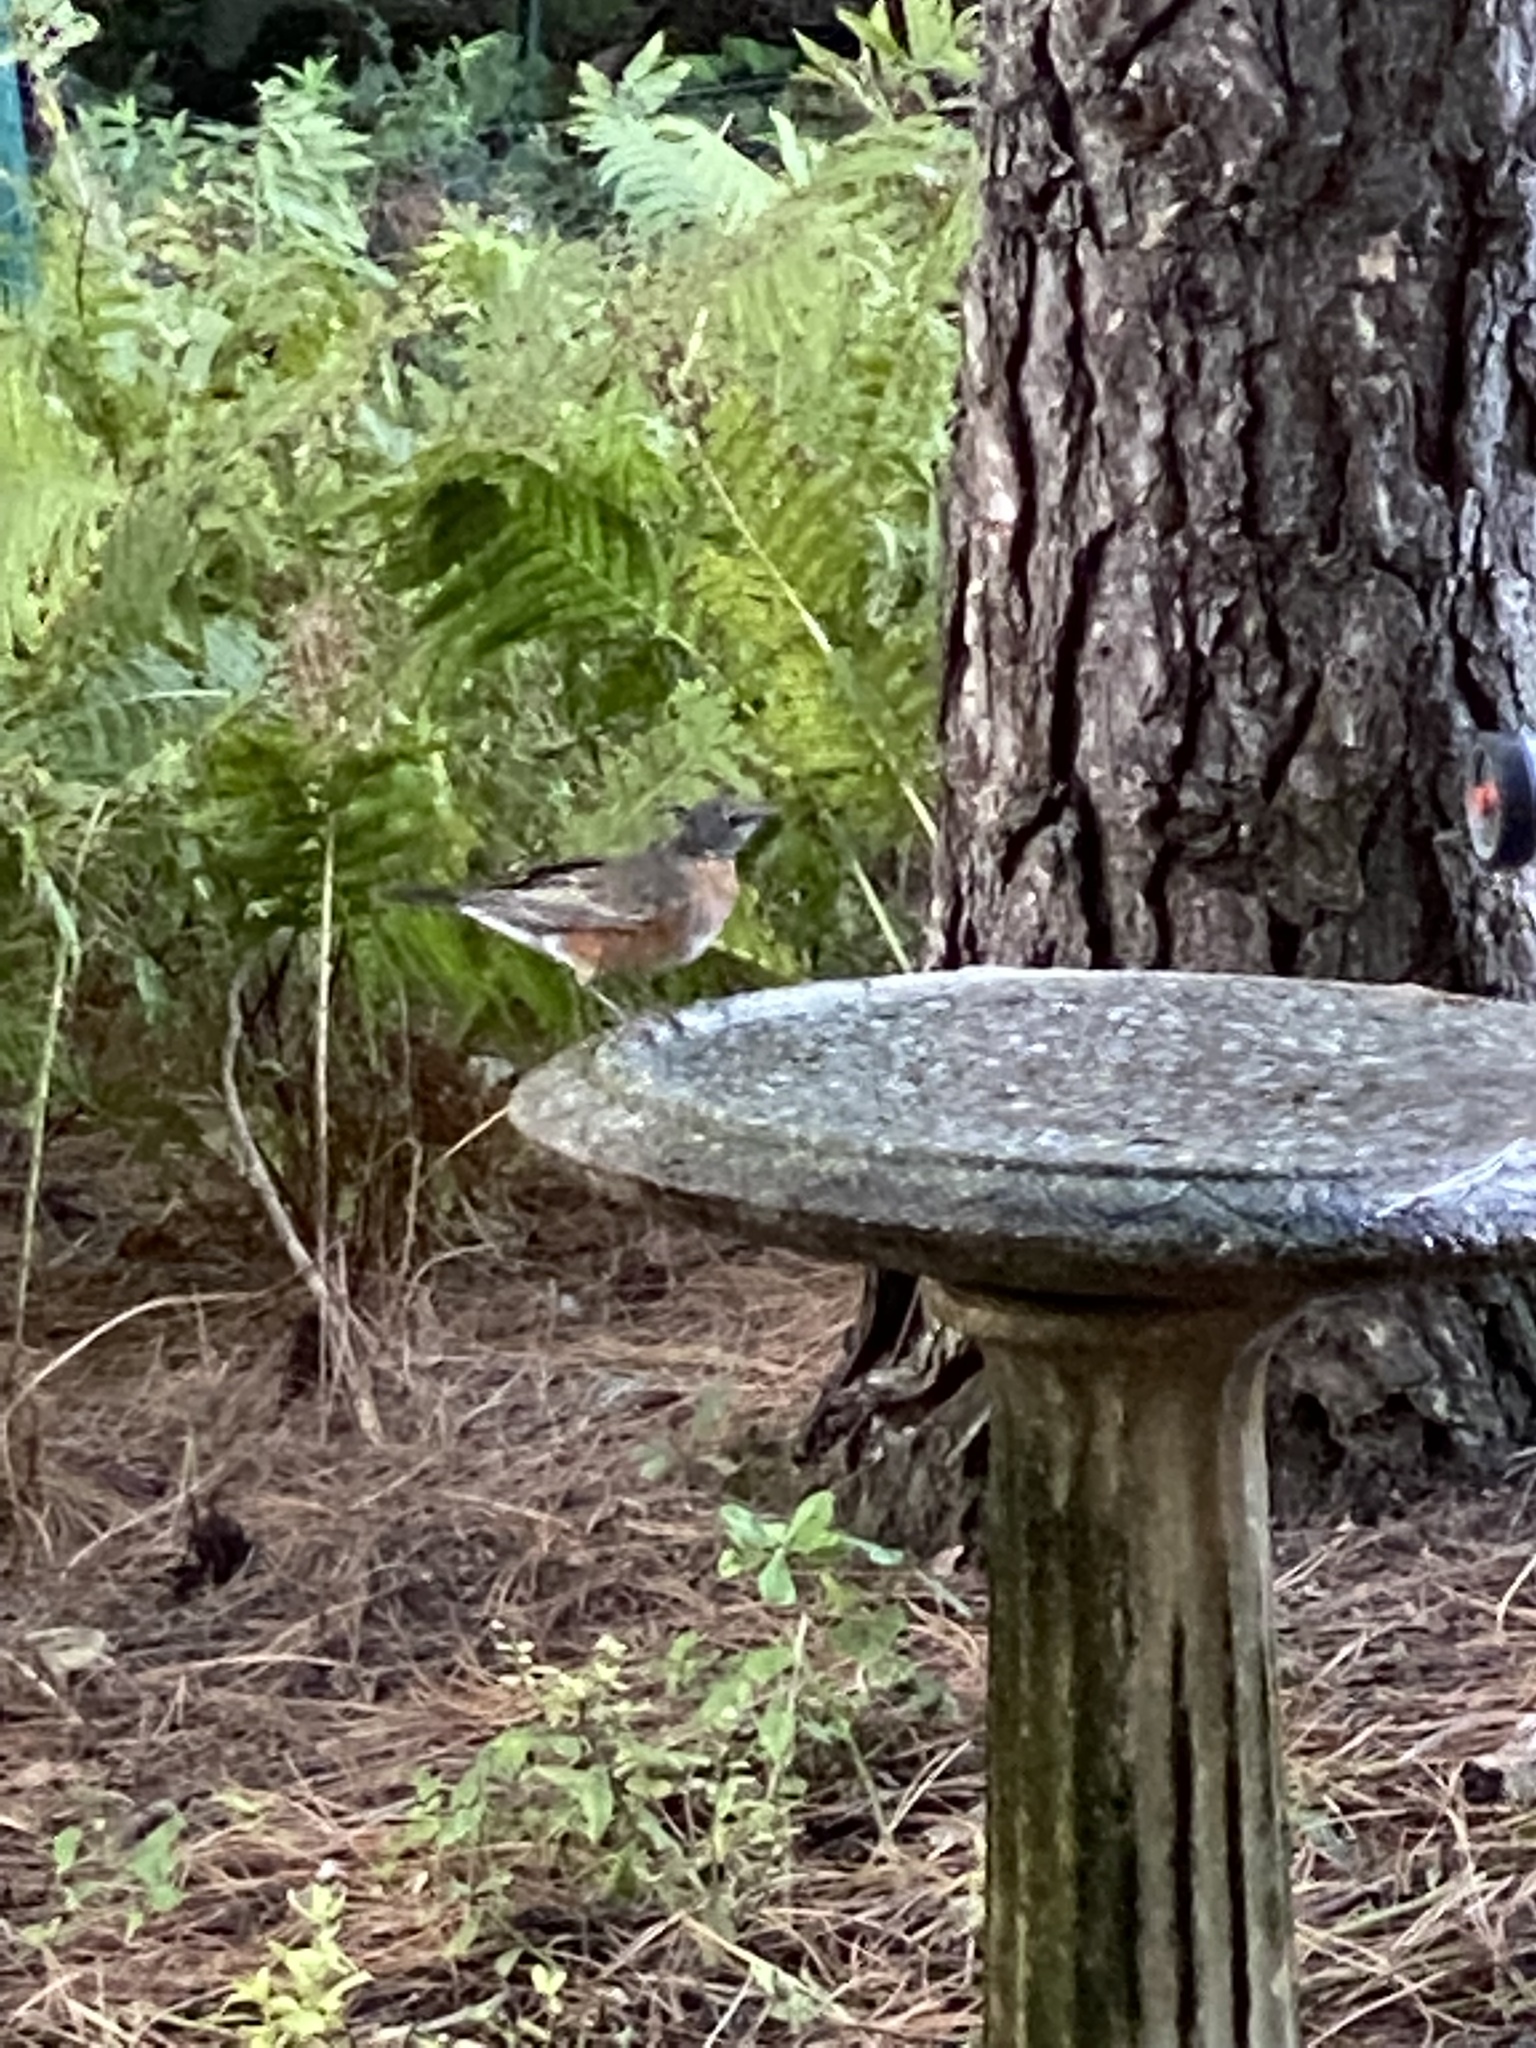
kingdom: Animalia
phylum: Chordata
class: Aves
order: Passeriformes
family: Turdidae
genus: Turdus
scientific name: Turdus migratorius
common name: American robin
